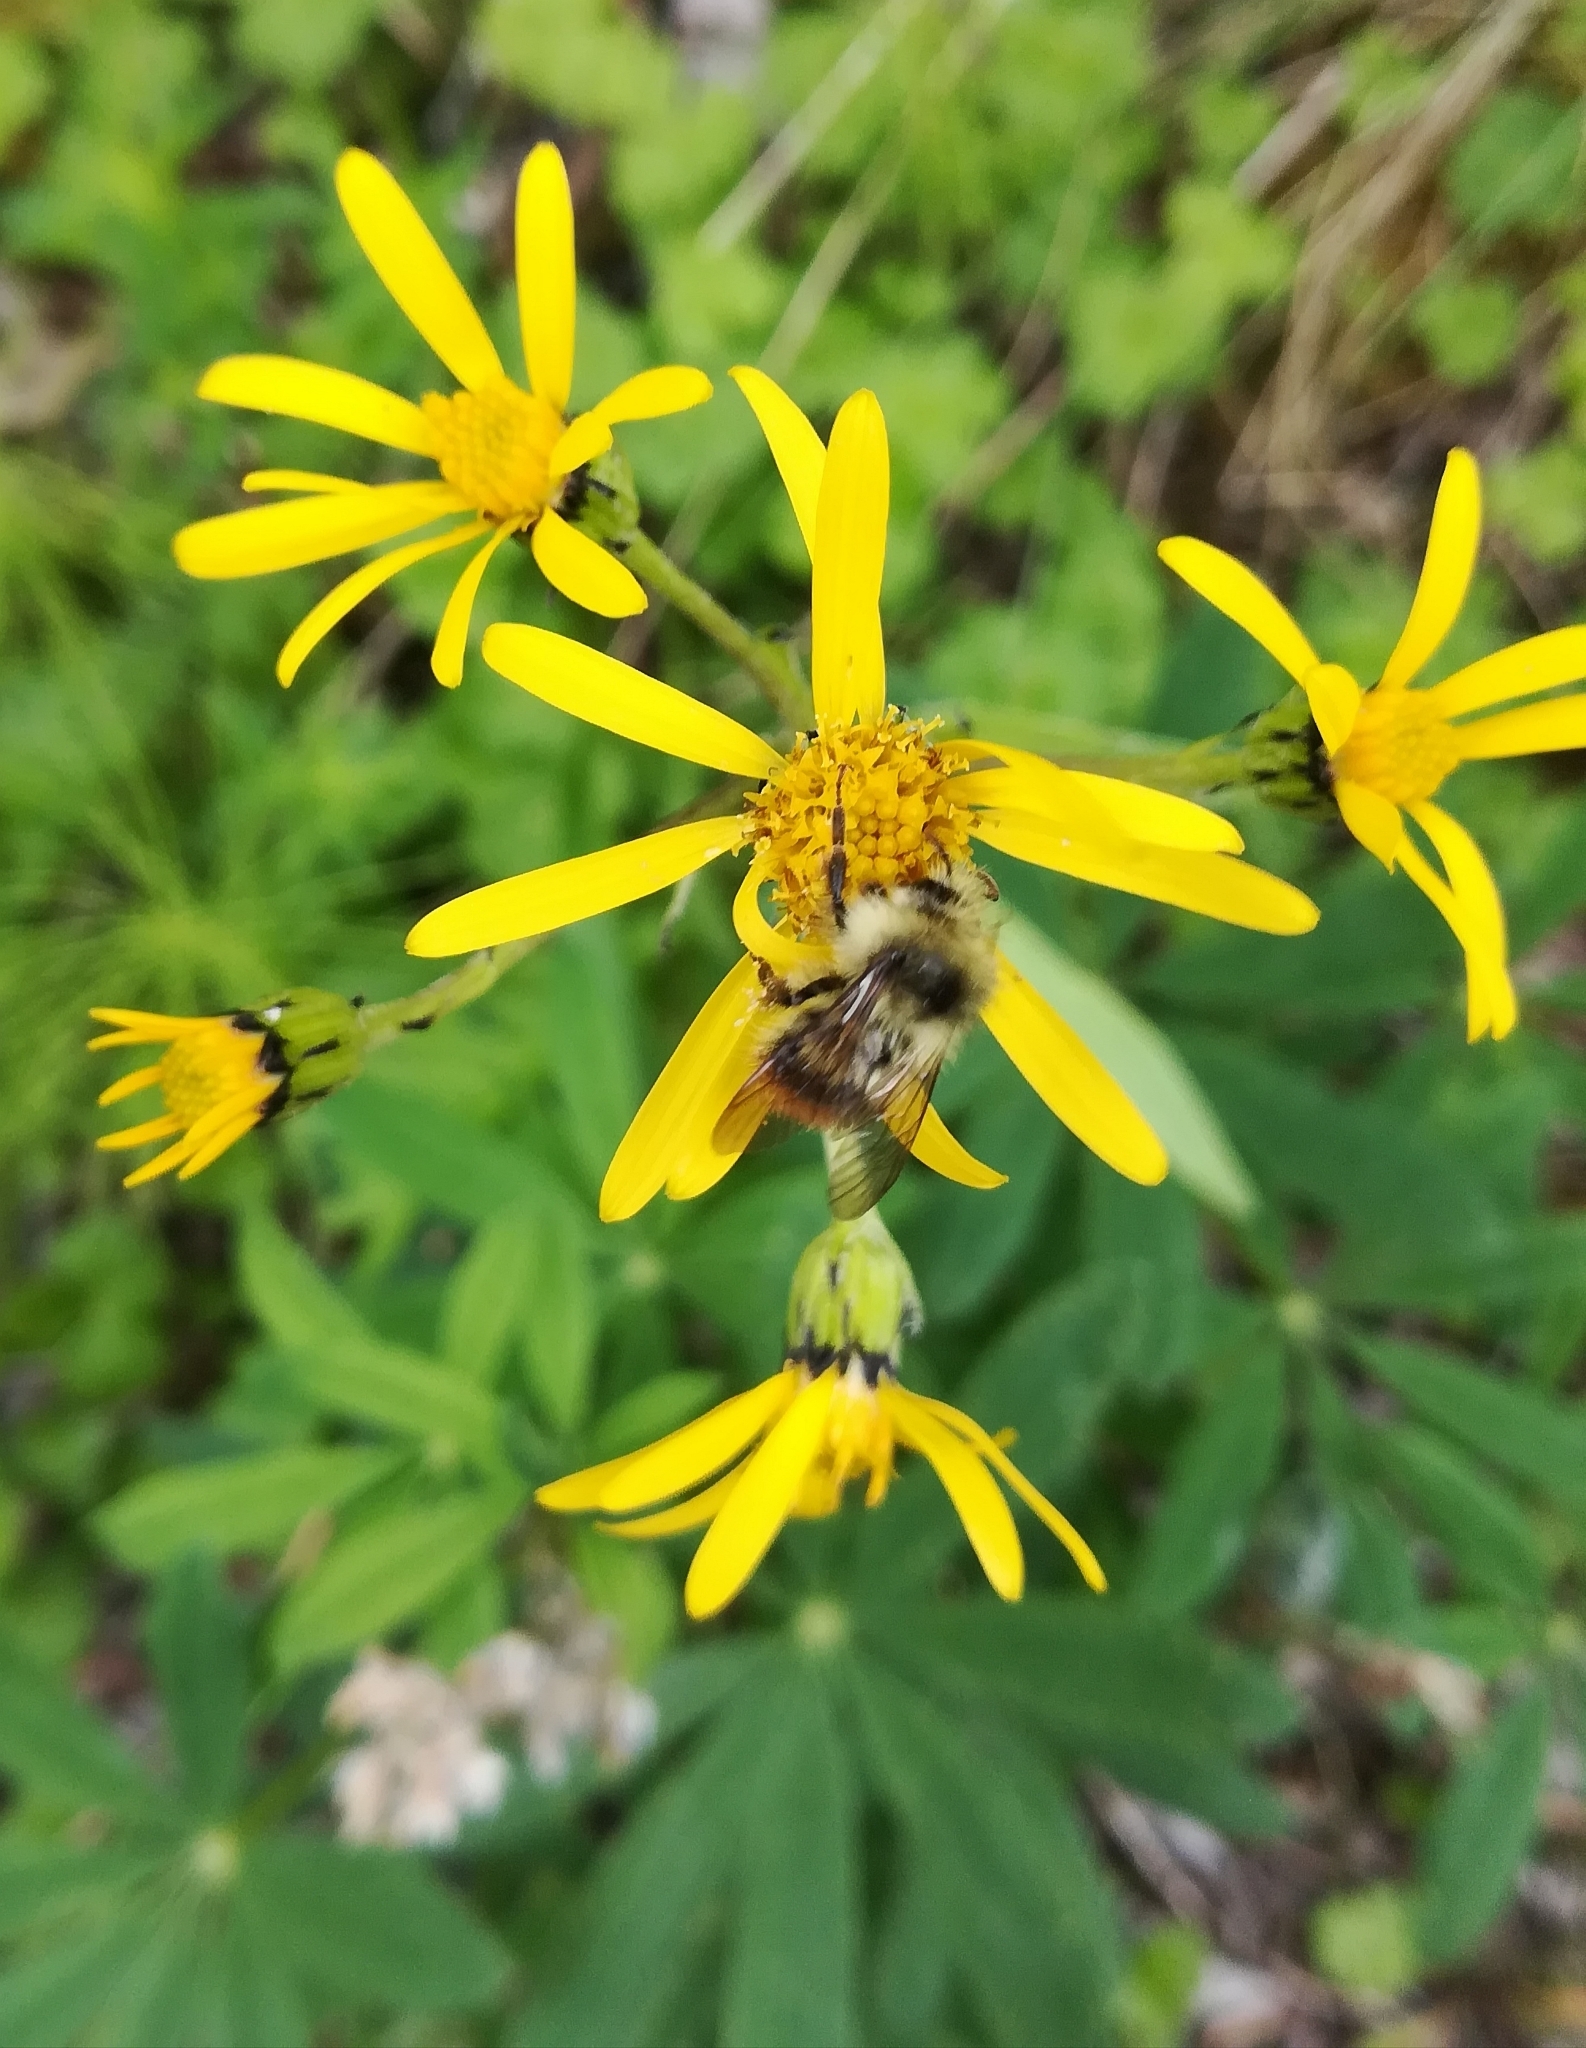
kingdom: Animalia
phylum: Arthropoda
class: Insecta
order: Hymenoptera
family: Apidae
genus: Bombus
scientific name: Bombus mixtus
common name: Fuzzy-horned bumble bee
